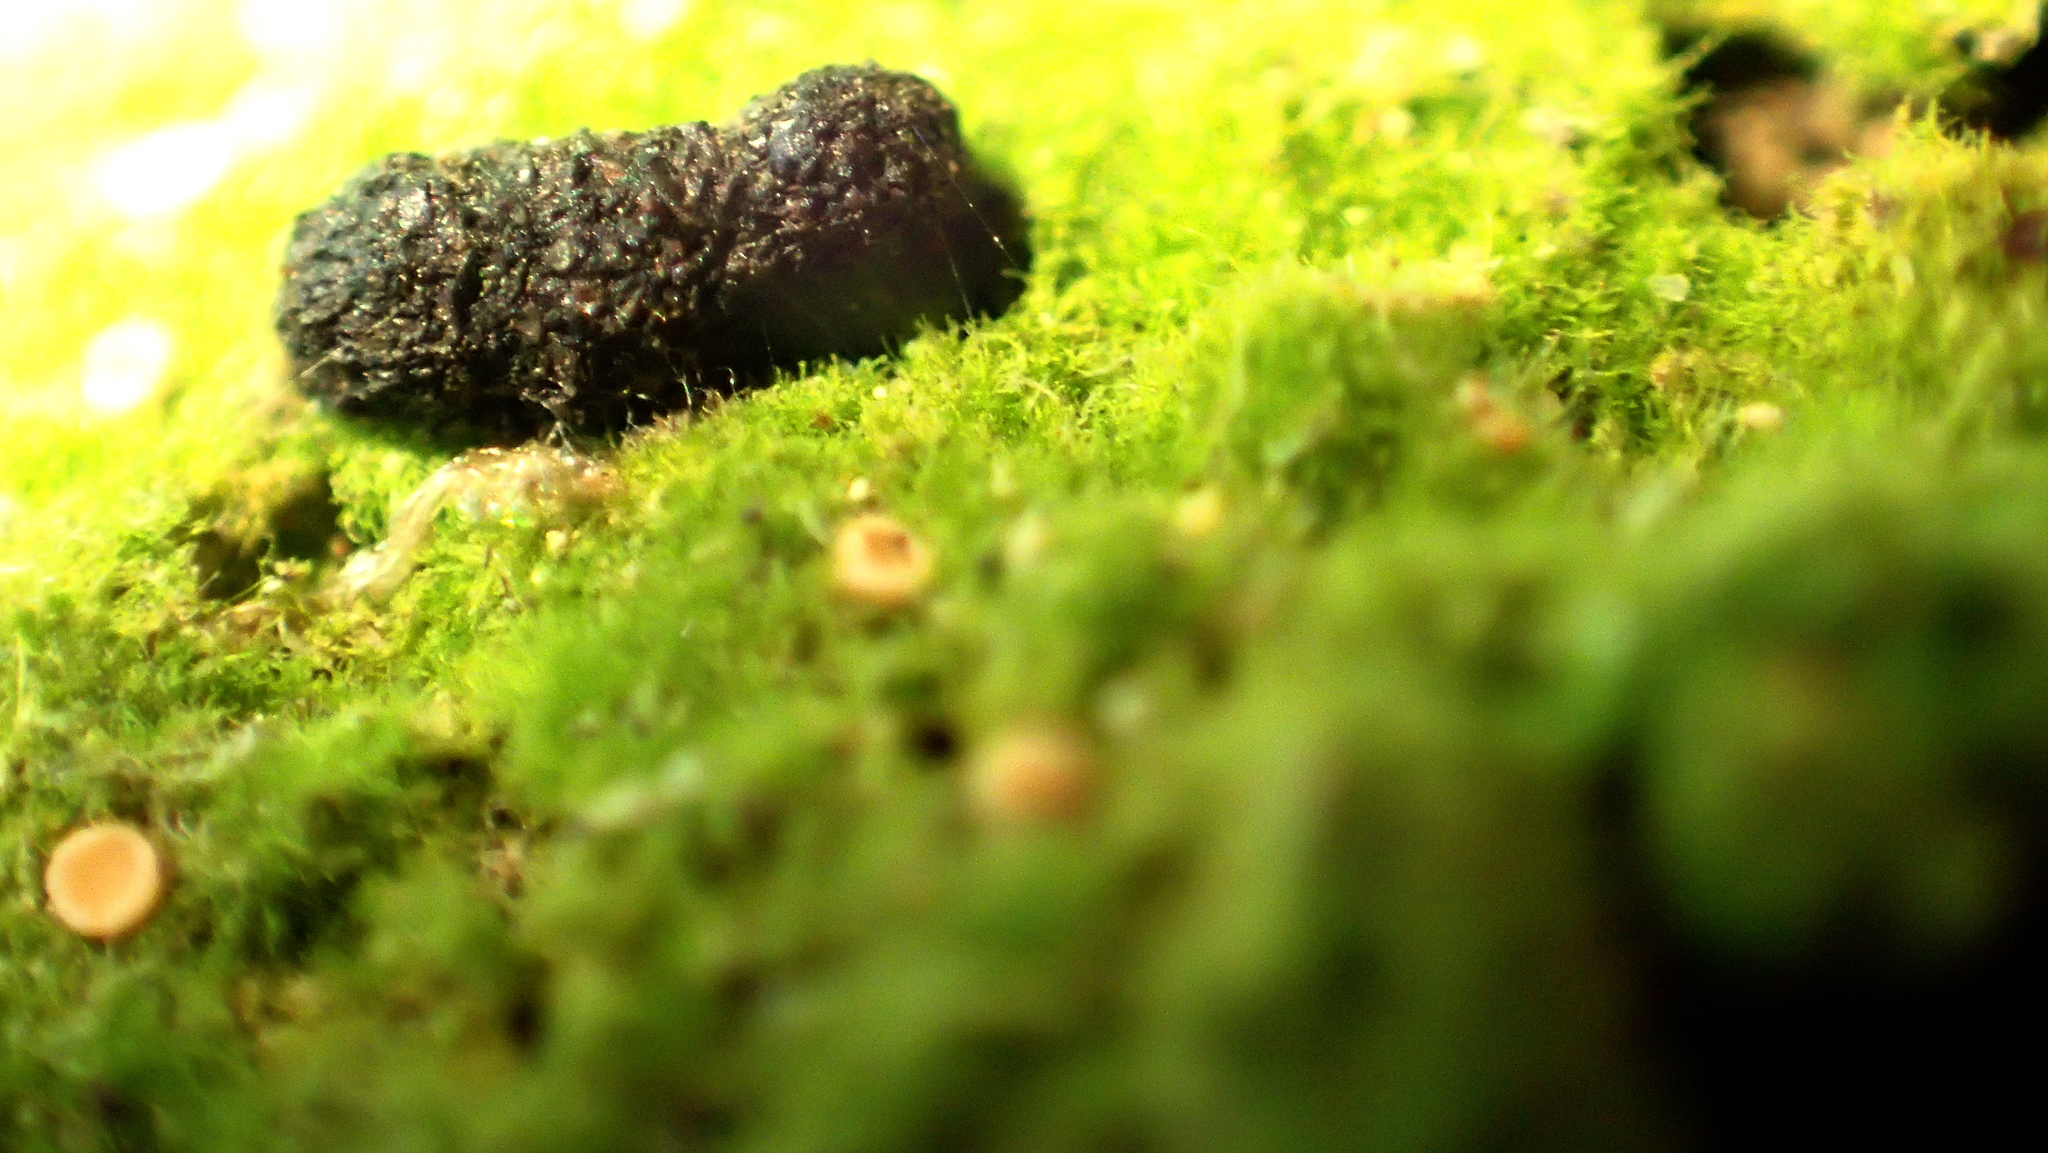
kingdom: Animalia
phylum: Chordata
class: Mammalia
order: Rodentia
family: Muridae
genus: Mus
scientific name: Mus musculus
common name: House mouse
